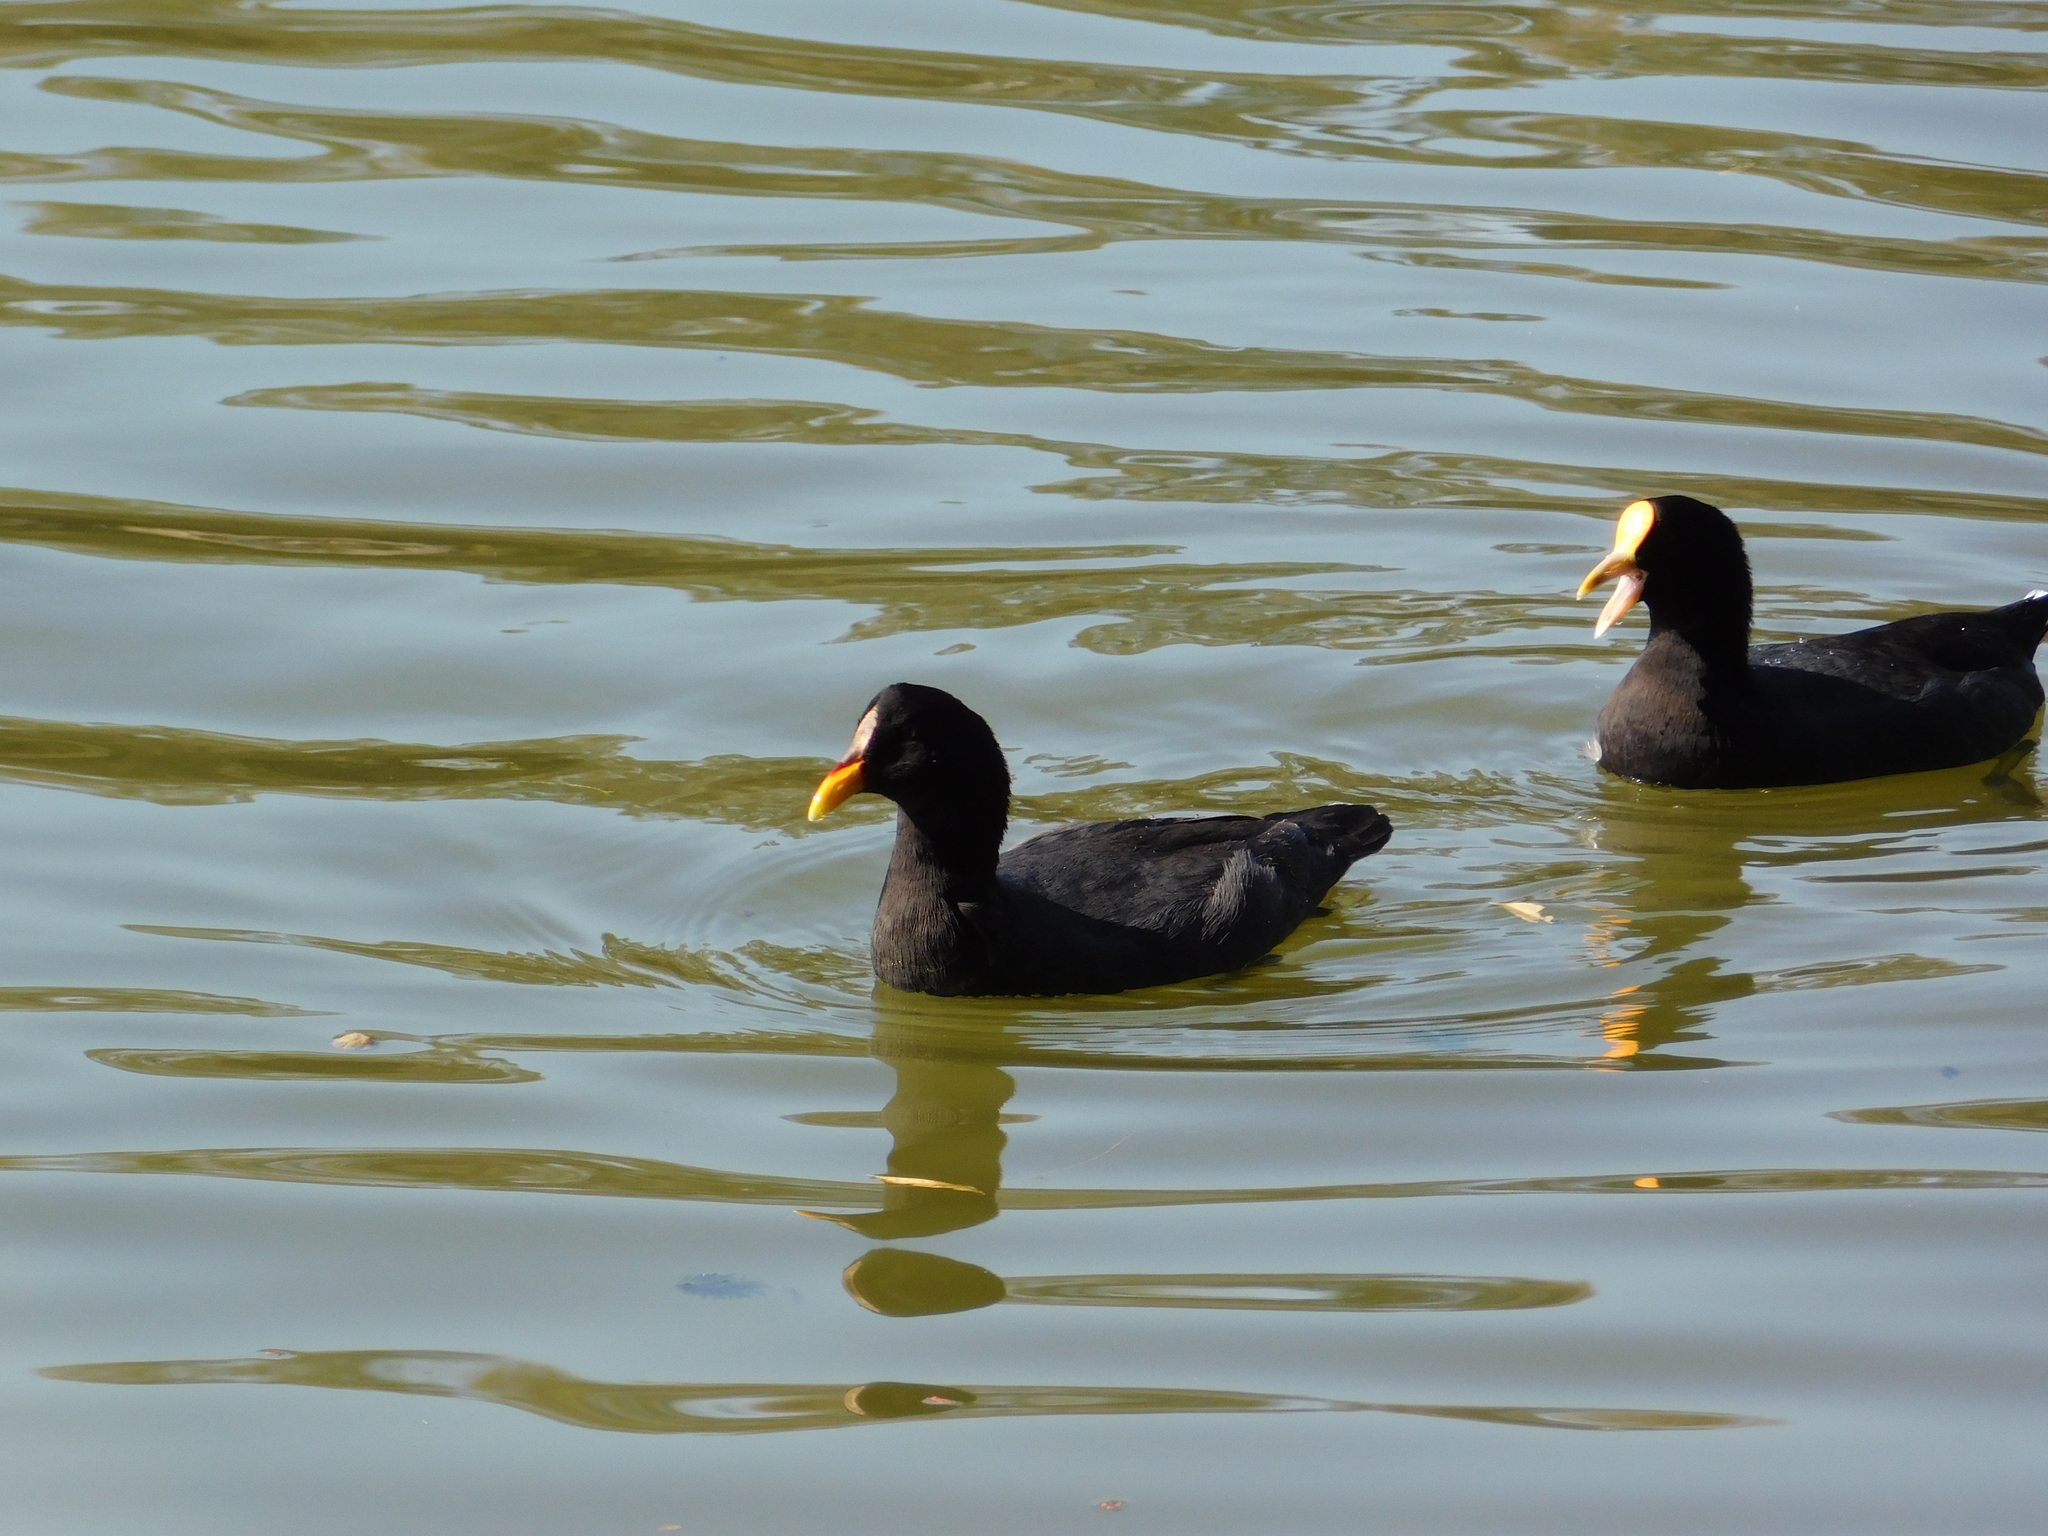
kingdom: Animalia
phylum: Chordata
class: Aves
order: Gruiformes
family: Rallidae
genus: Fulica
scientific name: Fulica rufifrons
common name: Red-fronted coot
